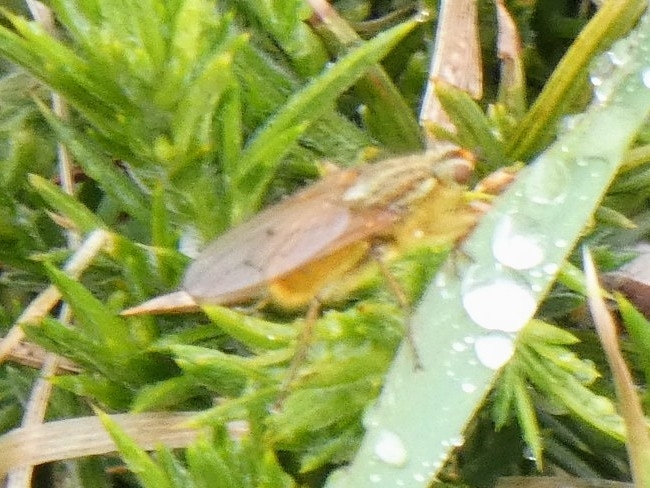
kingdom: Animalia
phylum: Arthropoda
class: Insecta
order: Diptera
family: Scathophagidae
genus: Scathophaga
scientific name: Scathophaga stercoraria
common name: Yellow dung fly
